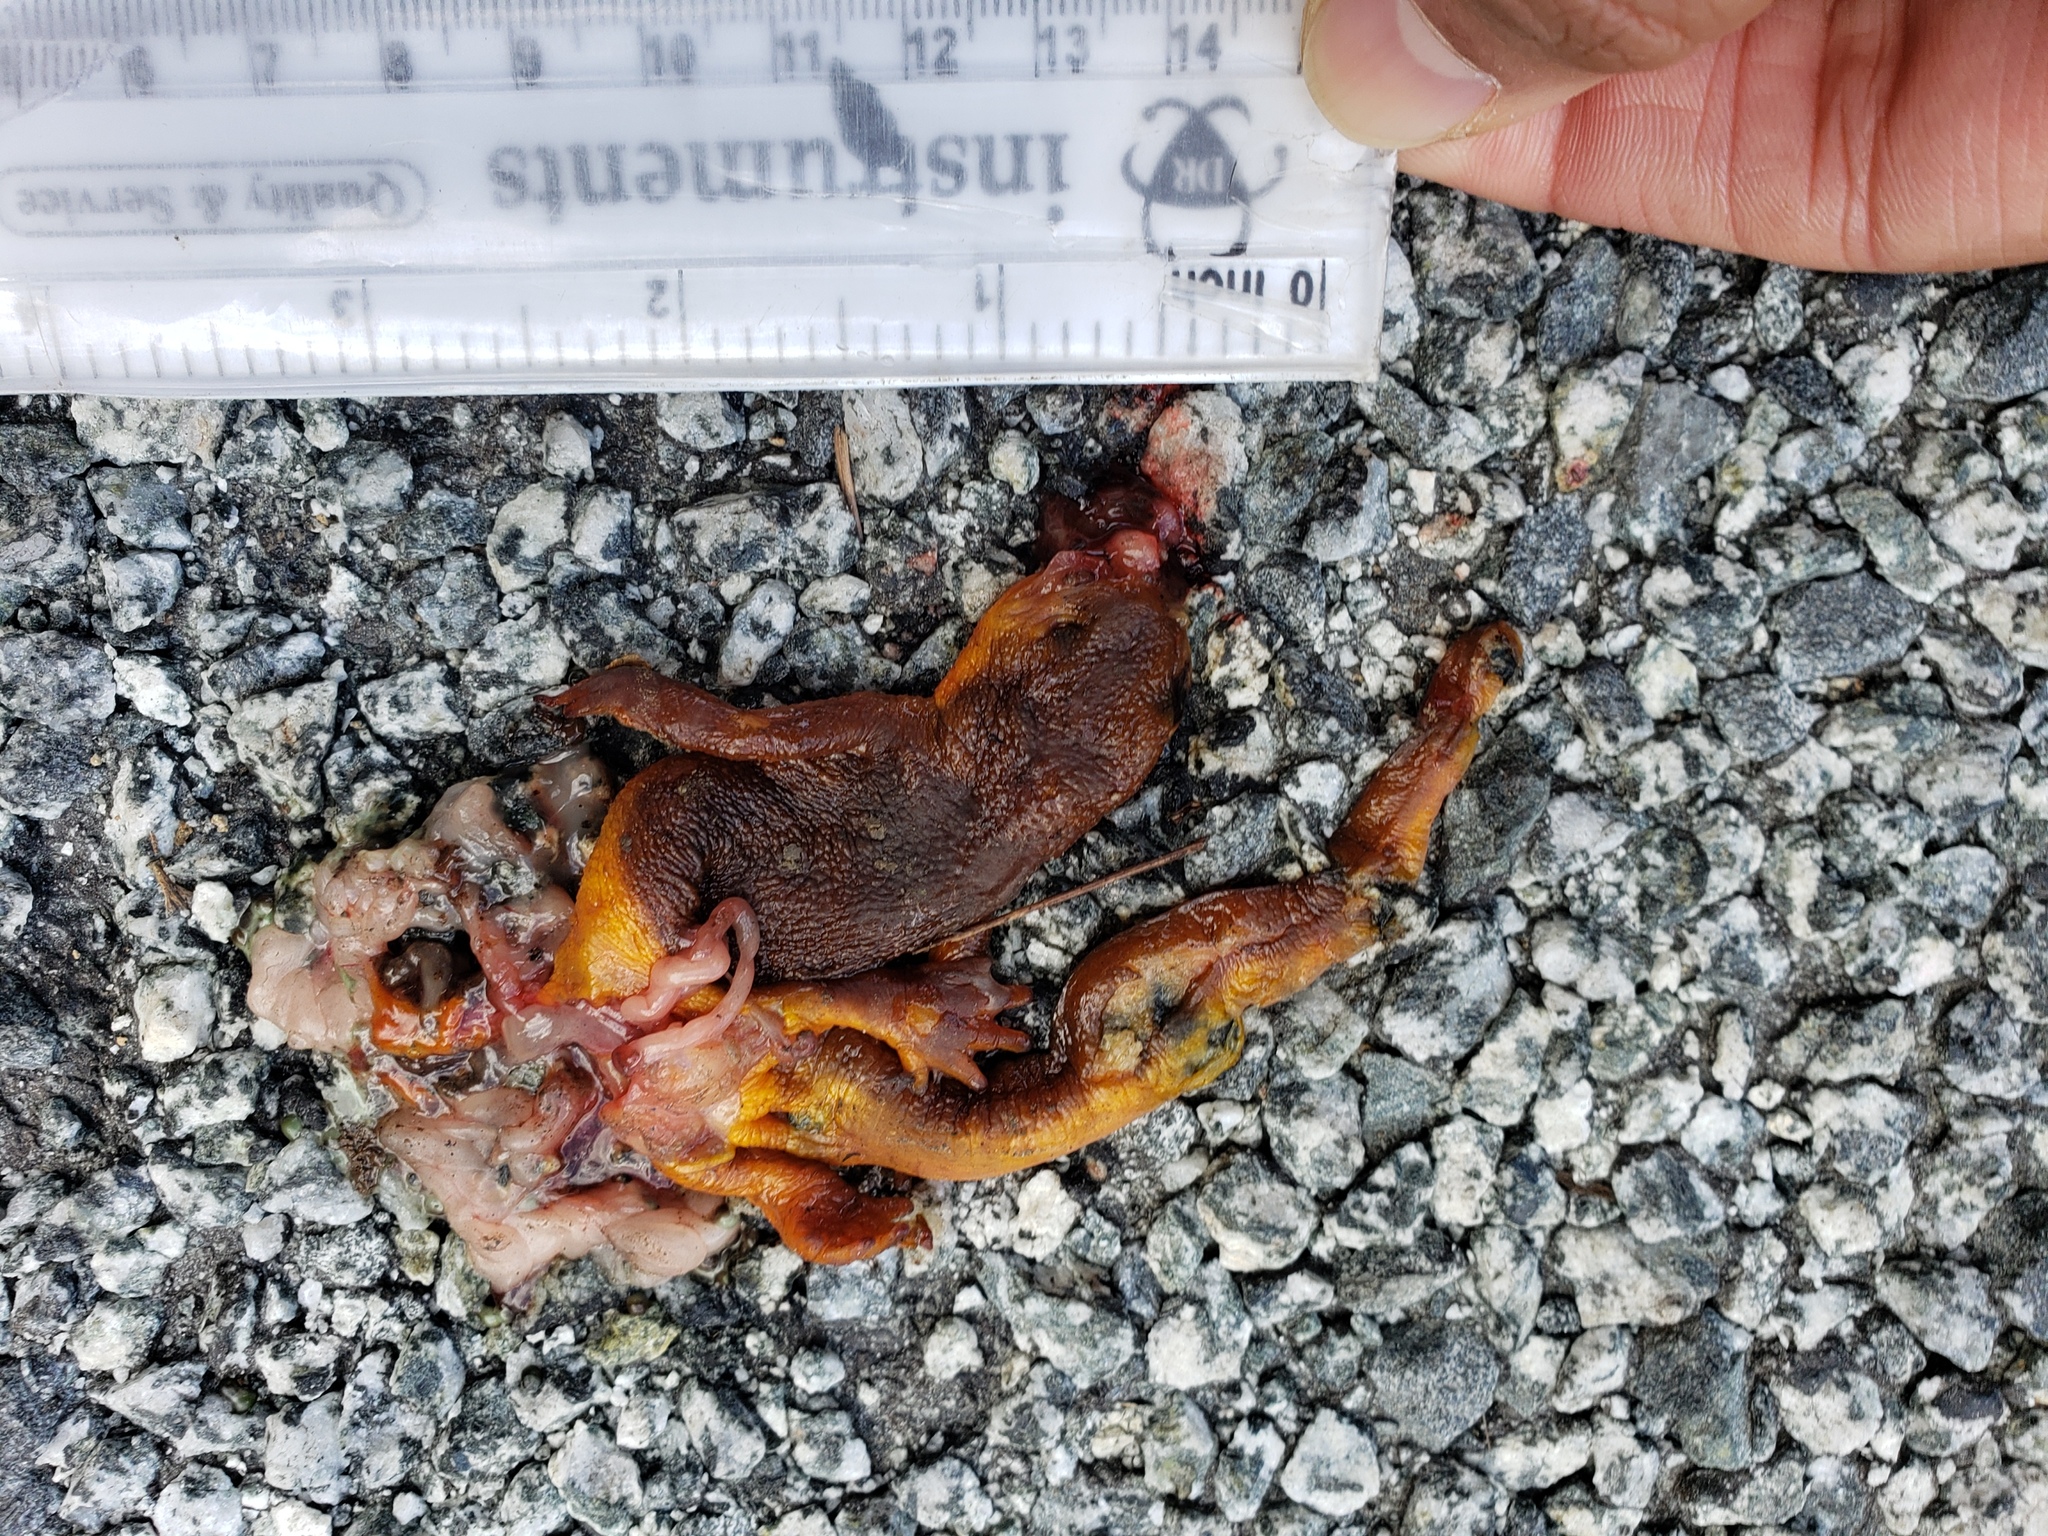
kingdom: Animalia
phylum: Chordata
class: Amphibia
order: Caudata
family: Salamandridae
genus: Taricha
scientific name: Taricha
